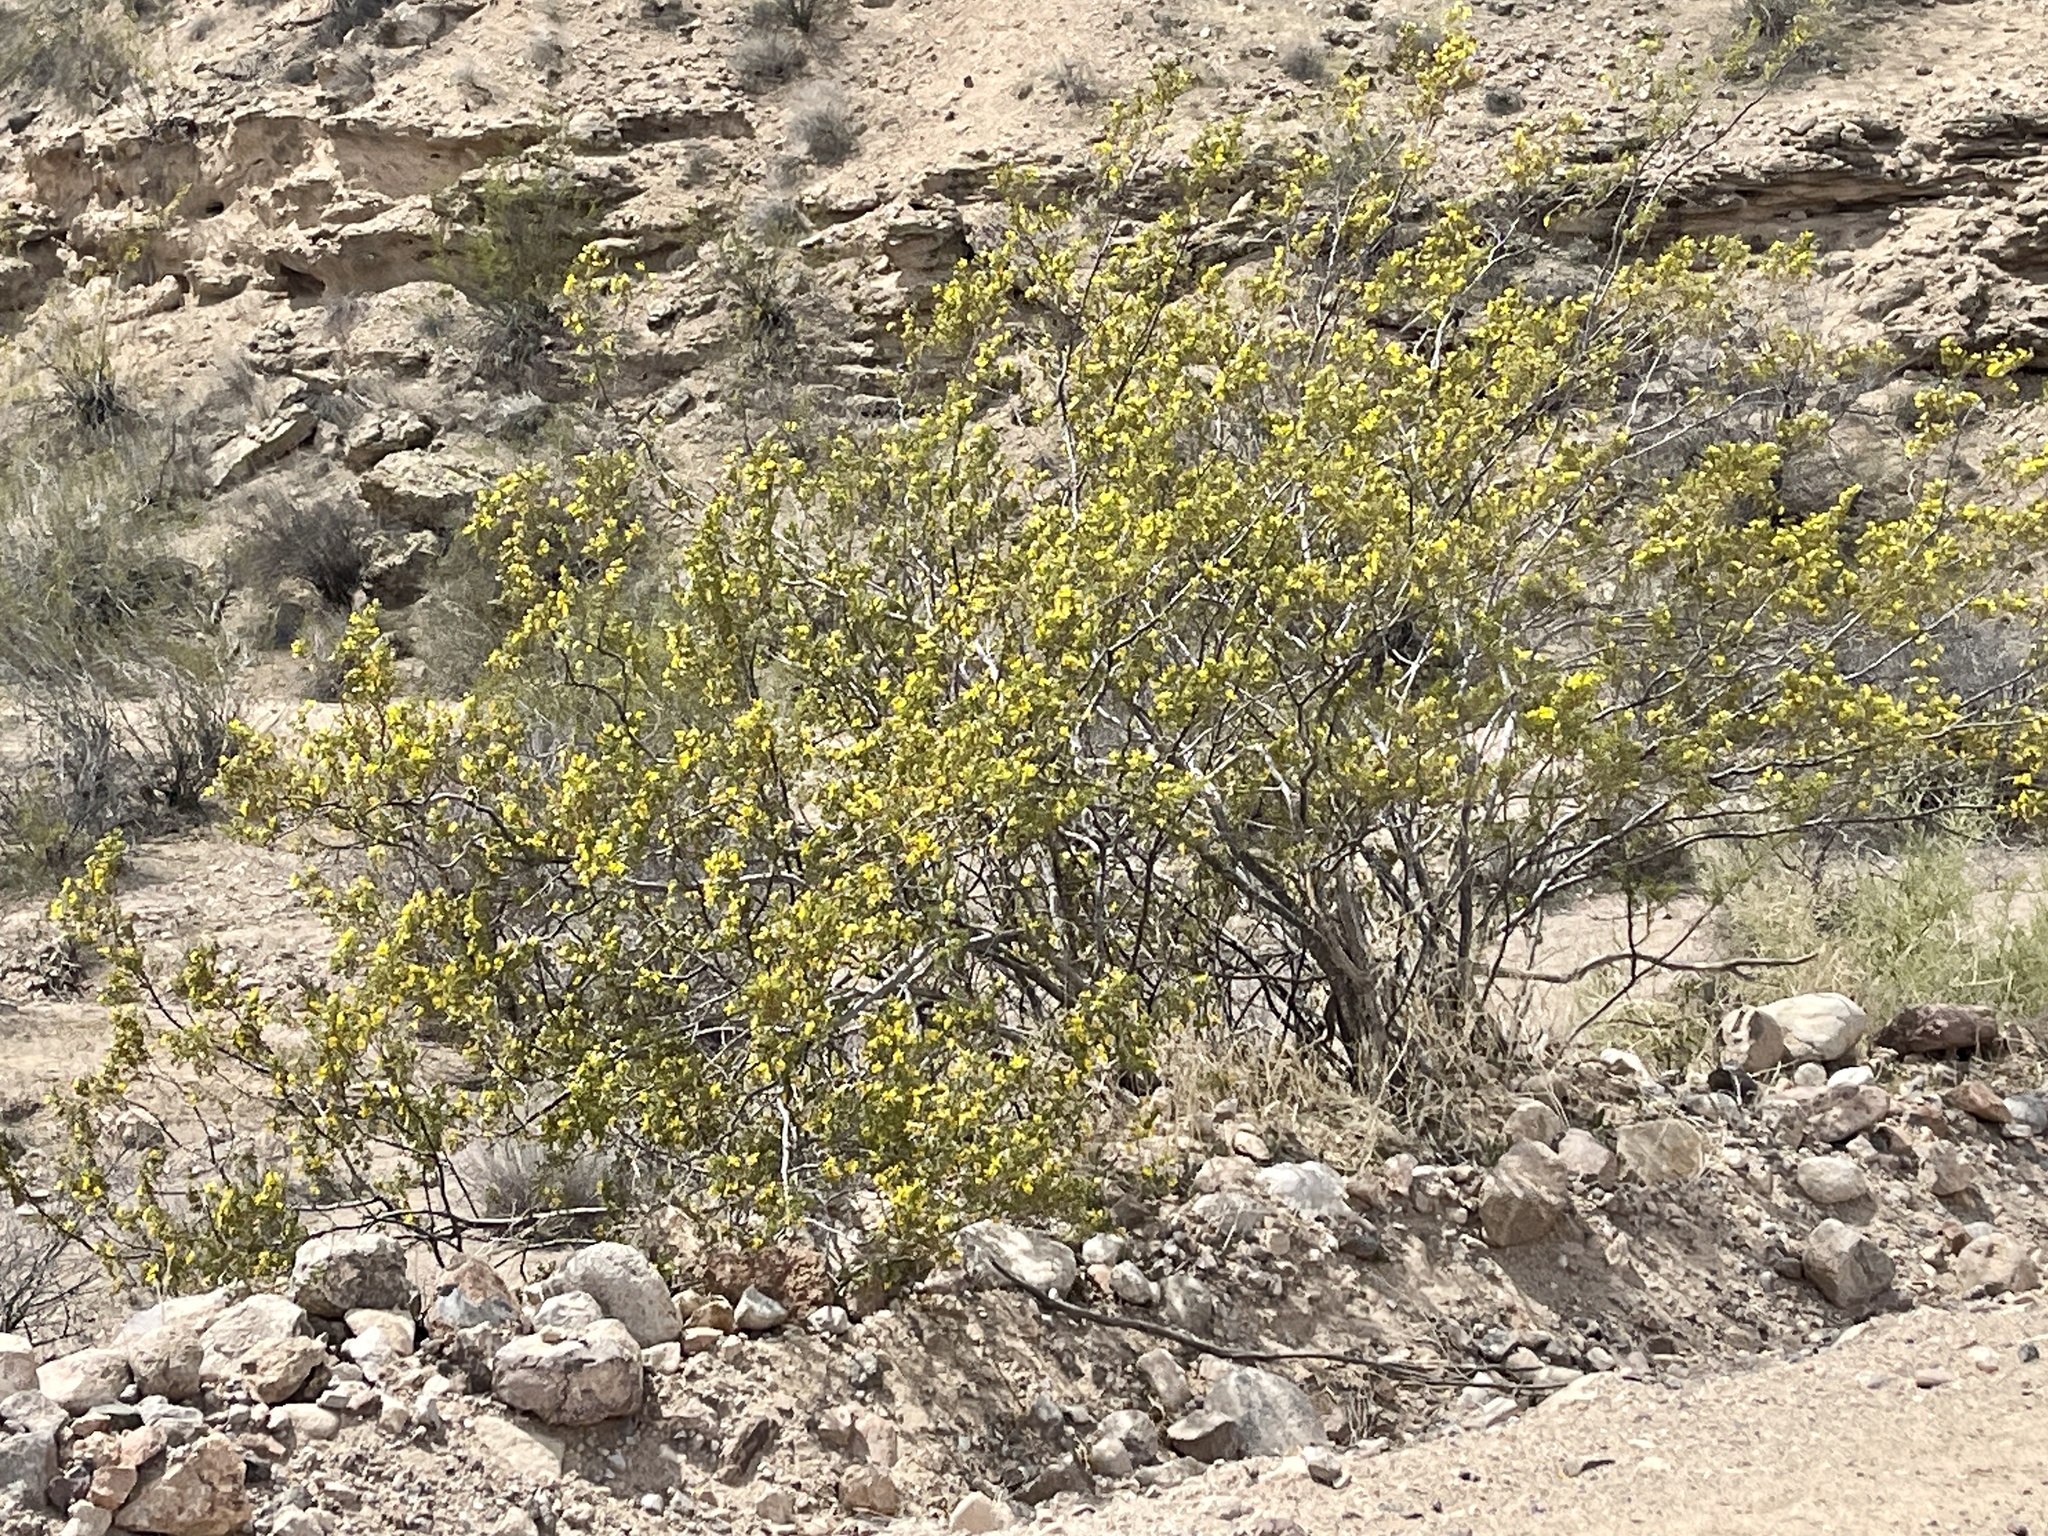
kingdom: Plantae
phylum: Tracheophyta
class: Magnoliopsida
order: Zygophyllales
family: Zygophyllaceae
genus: Larrea
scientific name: Larrea tridentata
